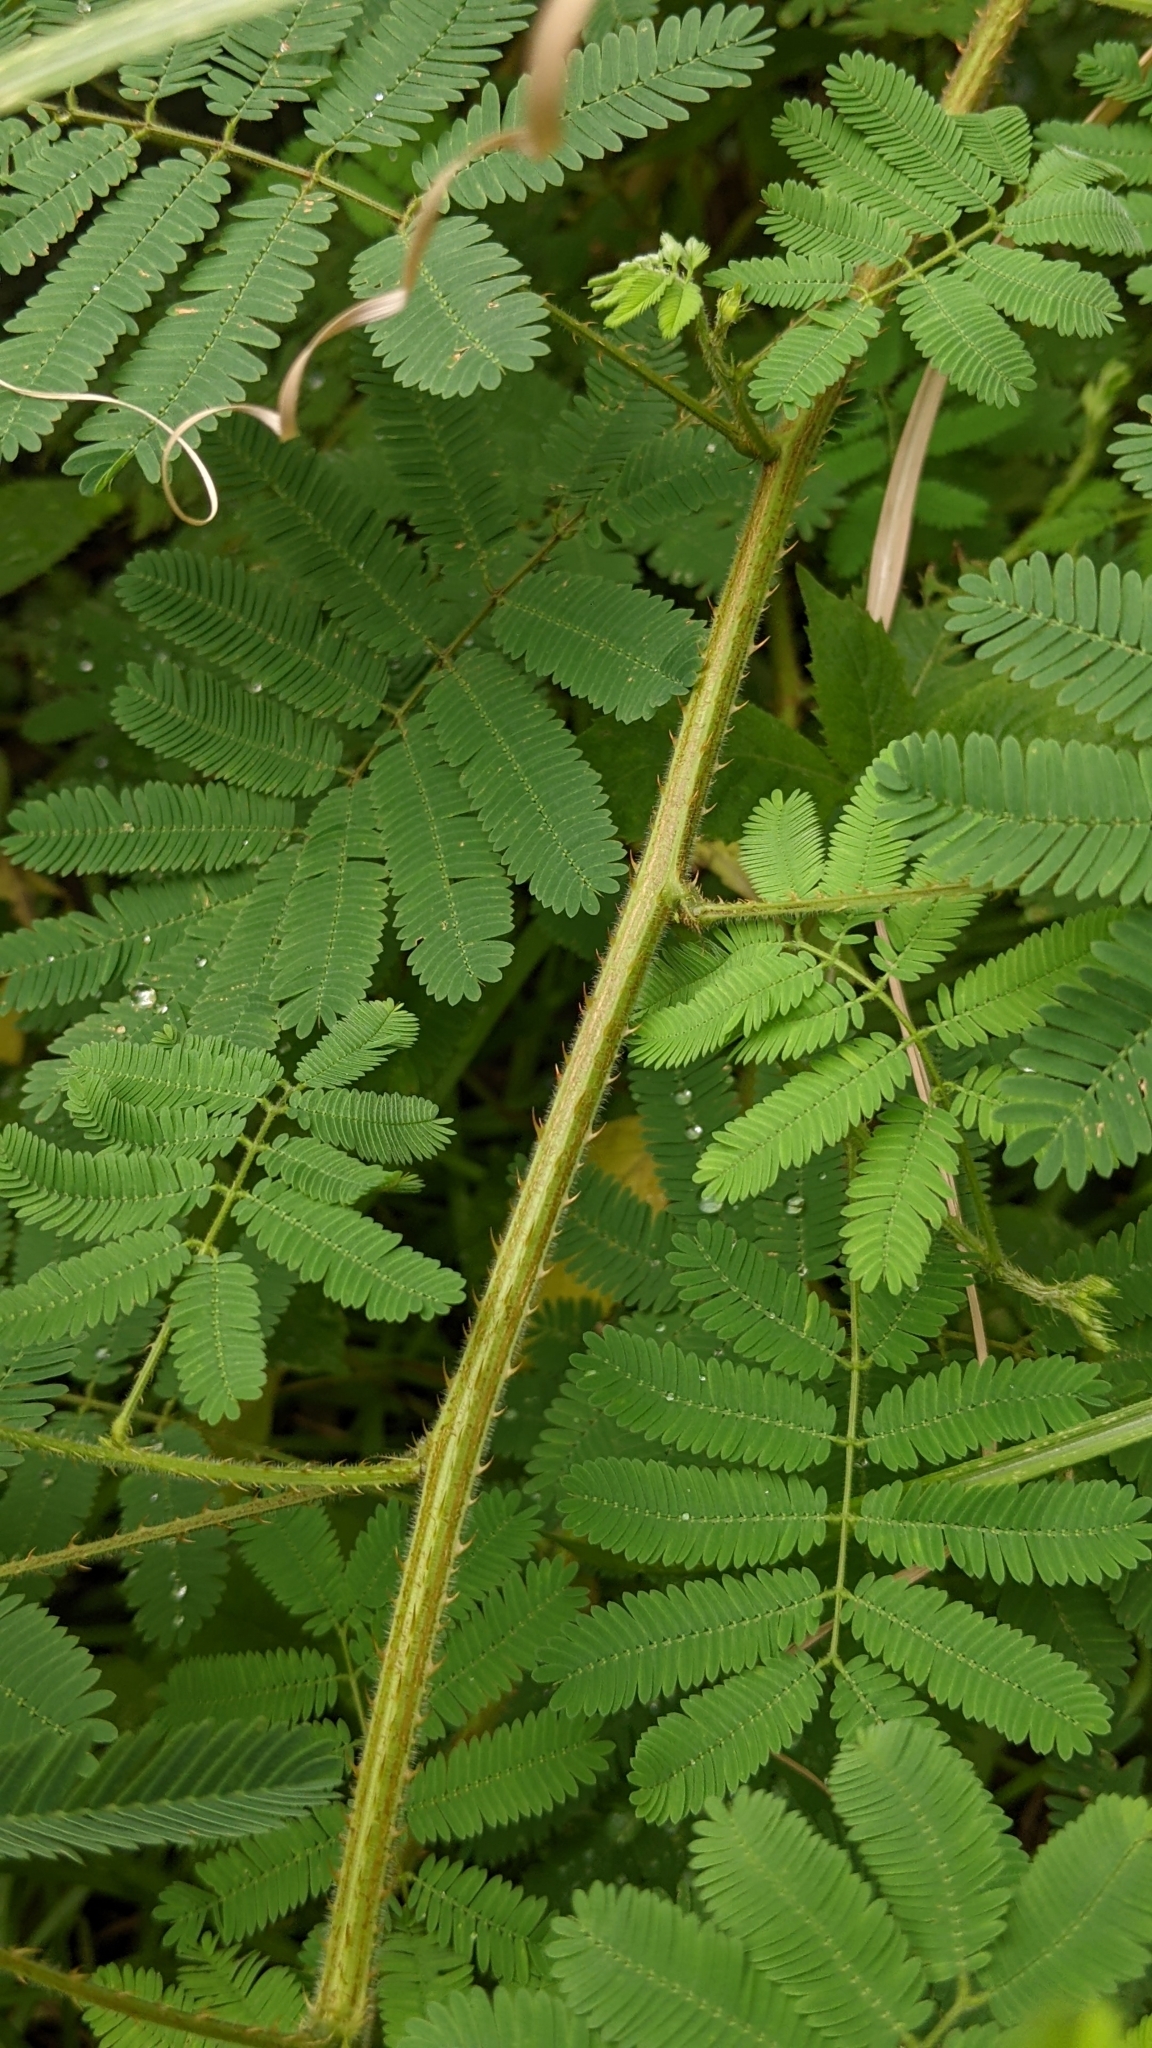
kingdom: Plantae
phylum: Tracheophyta
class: Magnoliopsida
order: Fabales
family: Fabaceae
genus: Mimosa
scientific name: Mimosa diplotricha
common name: Giant sensitive-plant
